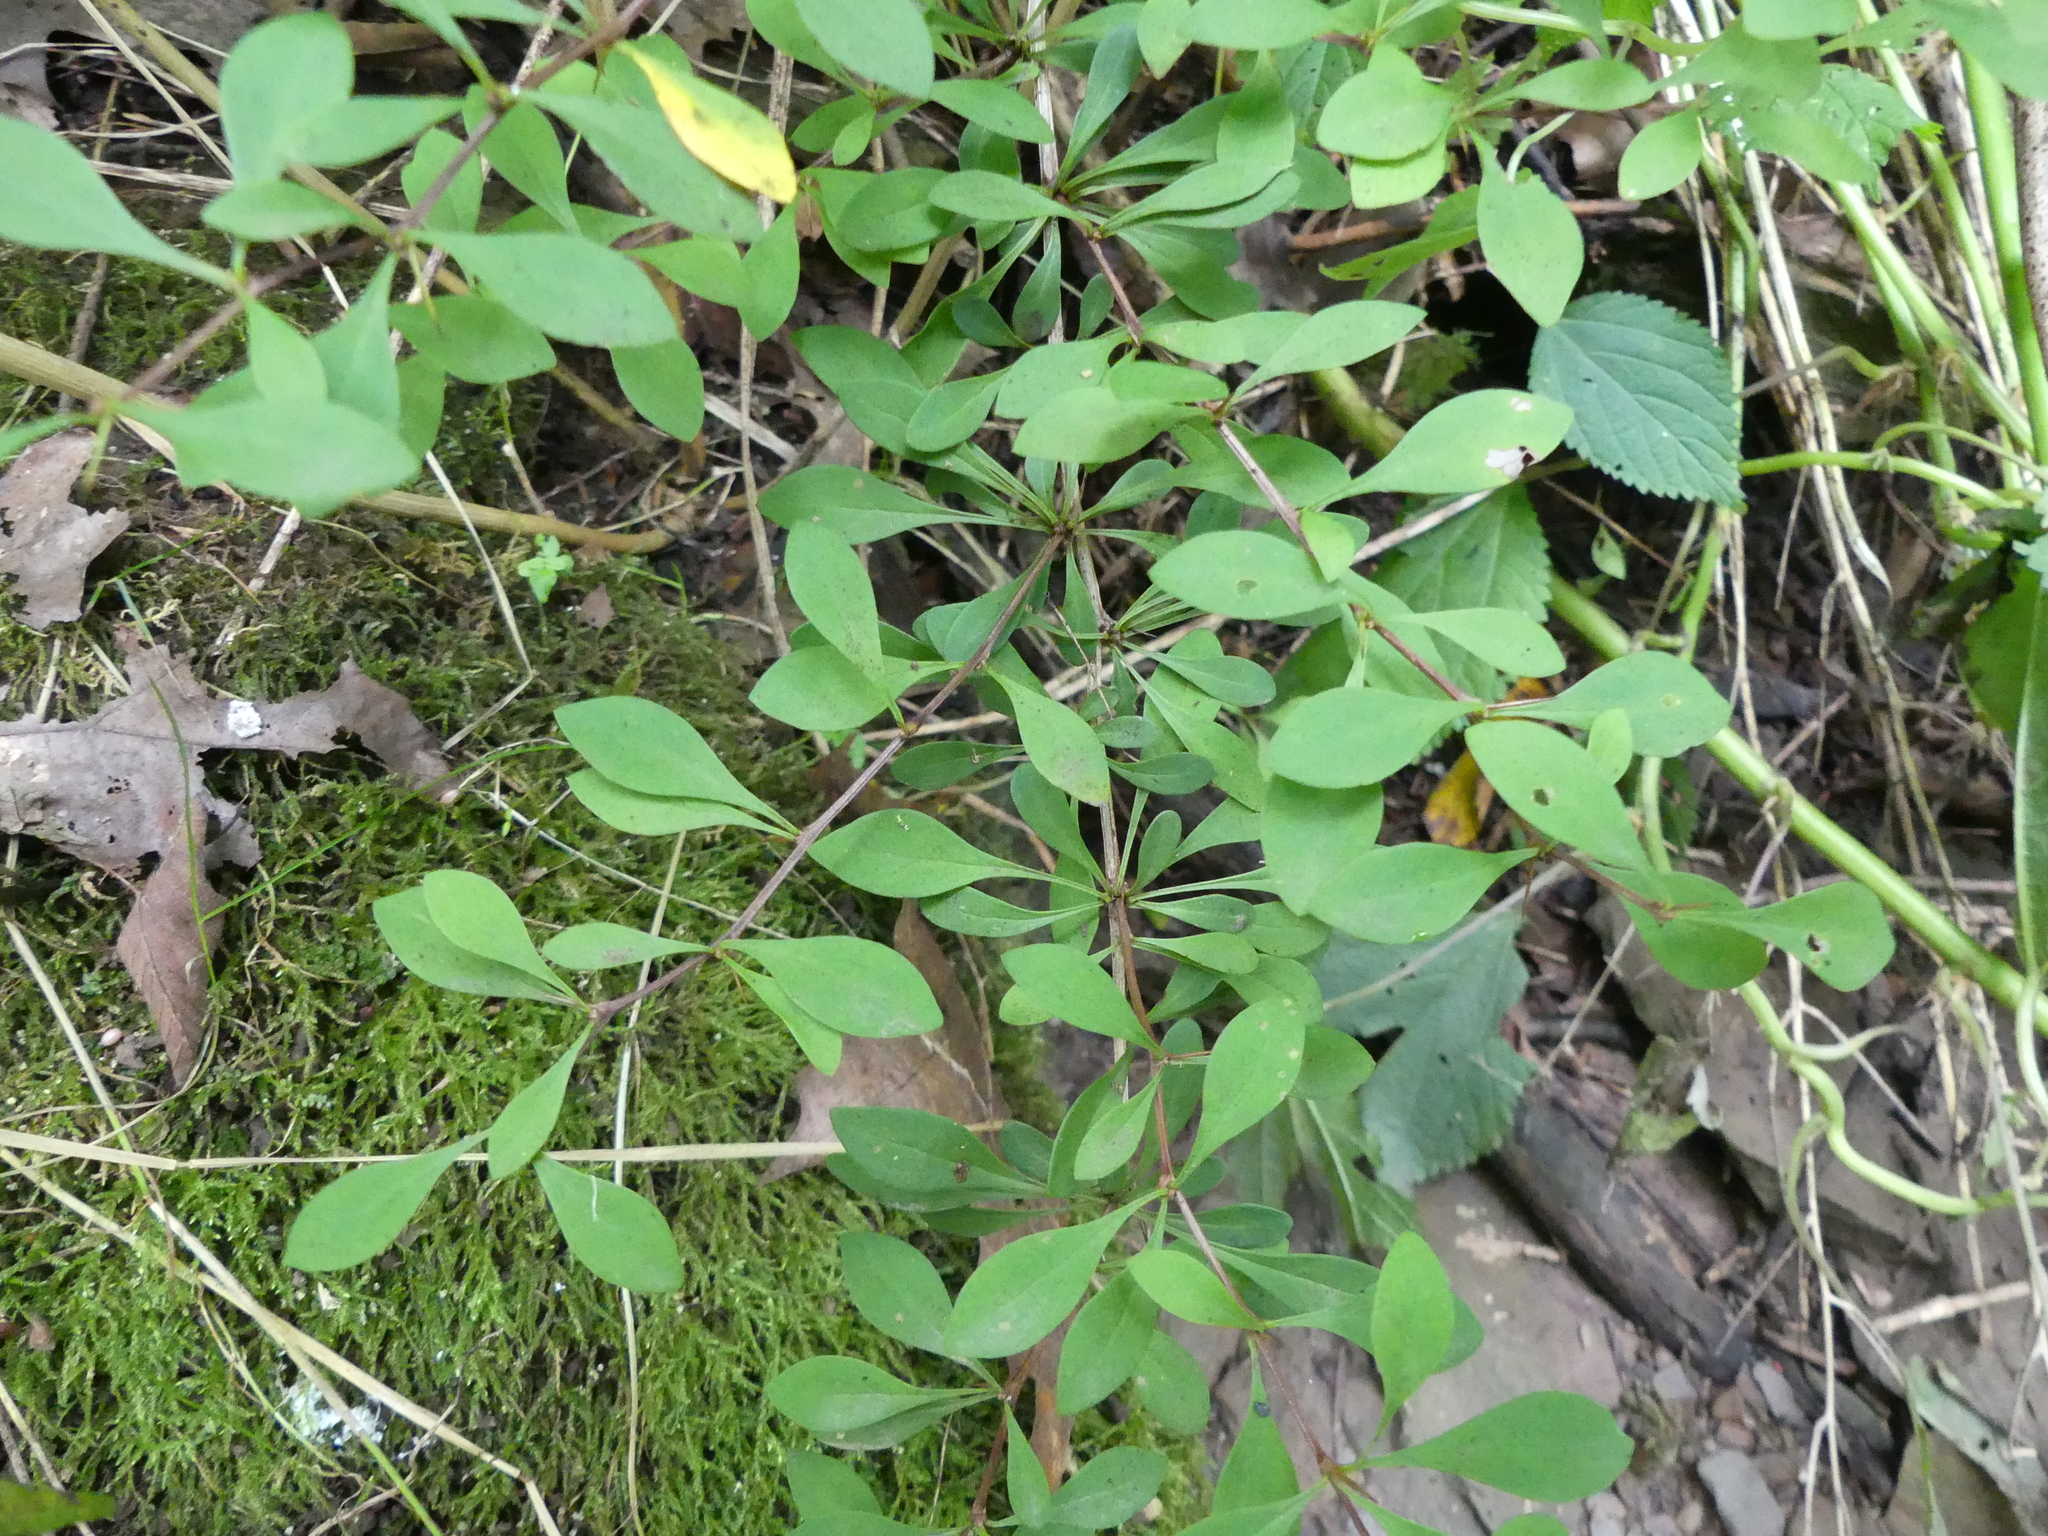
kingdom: Plantae
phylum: Tracheophyta
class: Magnoliopsida
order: Ranunculales
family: Berberidaceae
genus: Berberis
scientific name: Berberis thunbergii
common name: Japanese barberry
